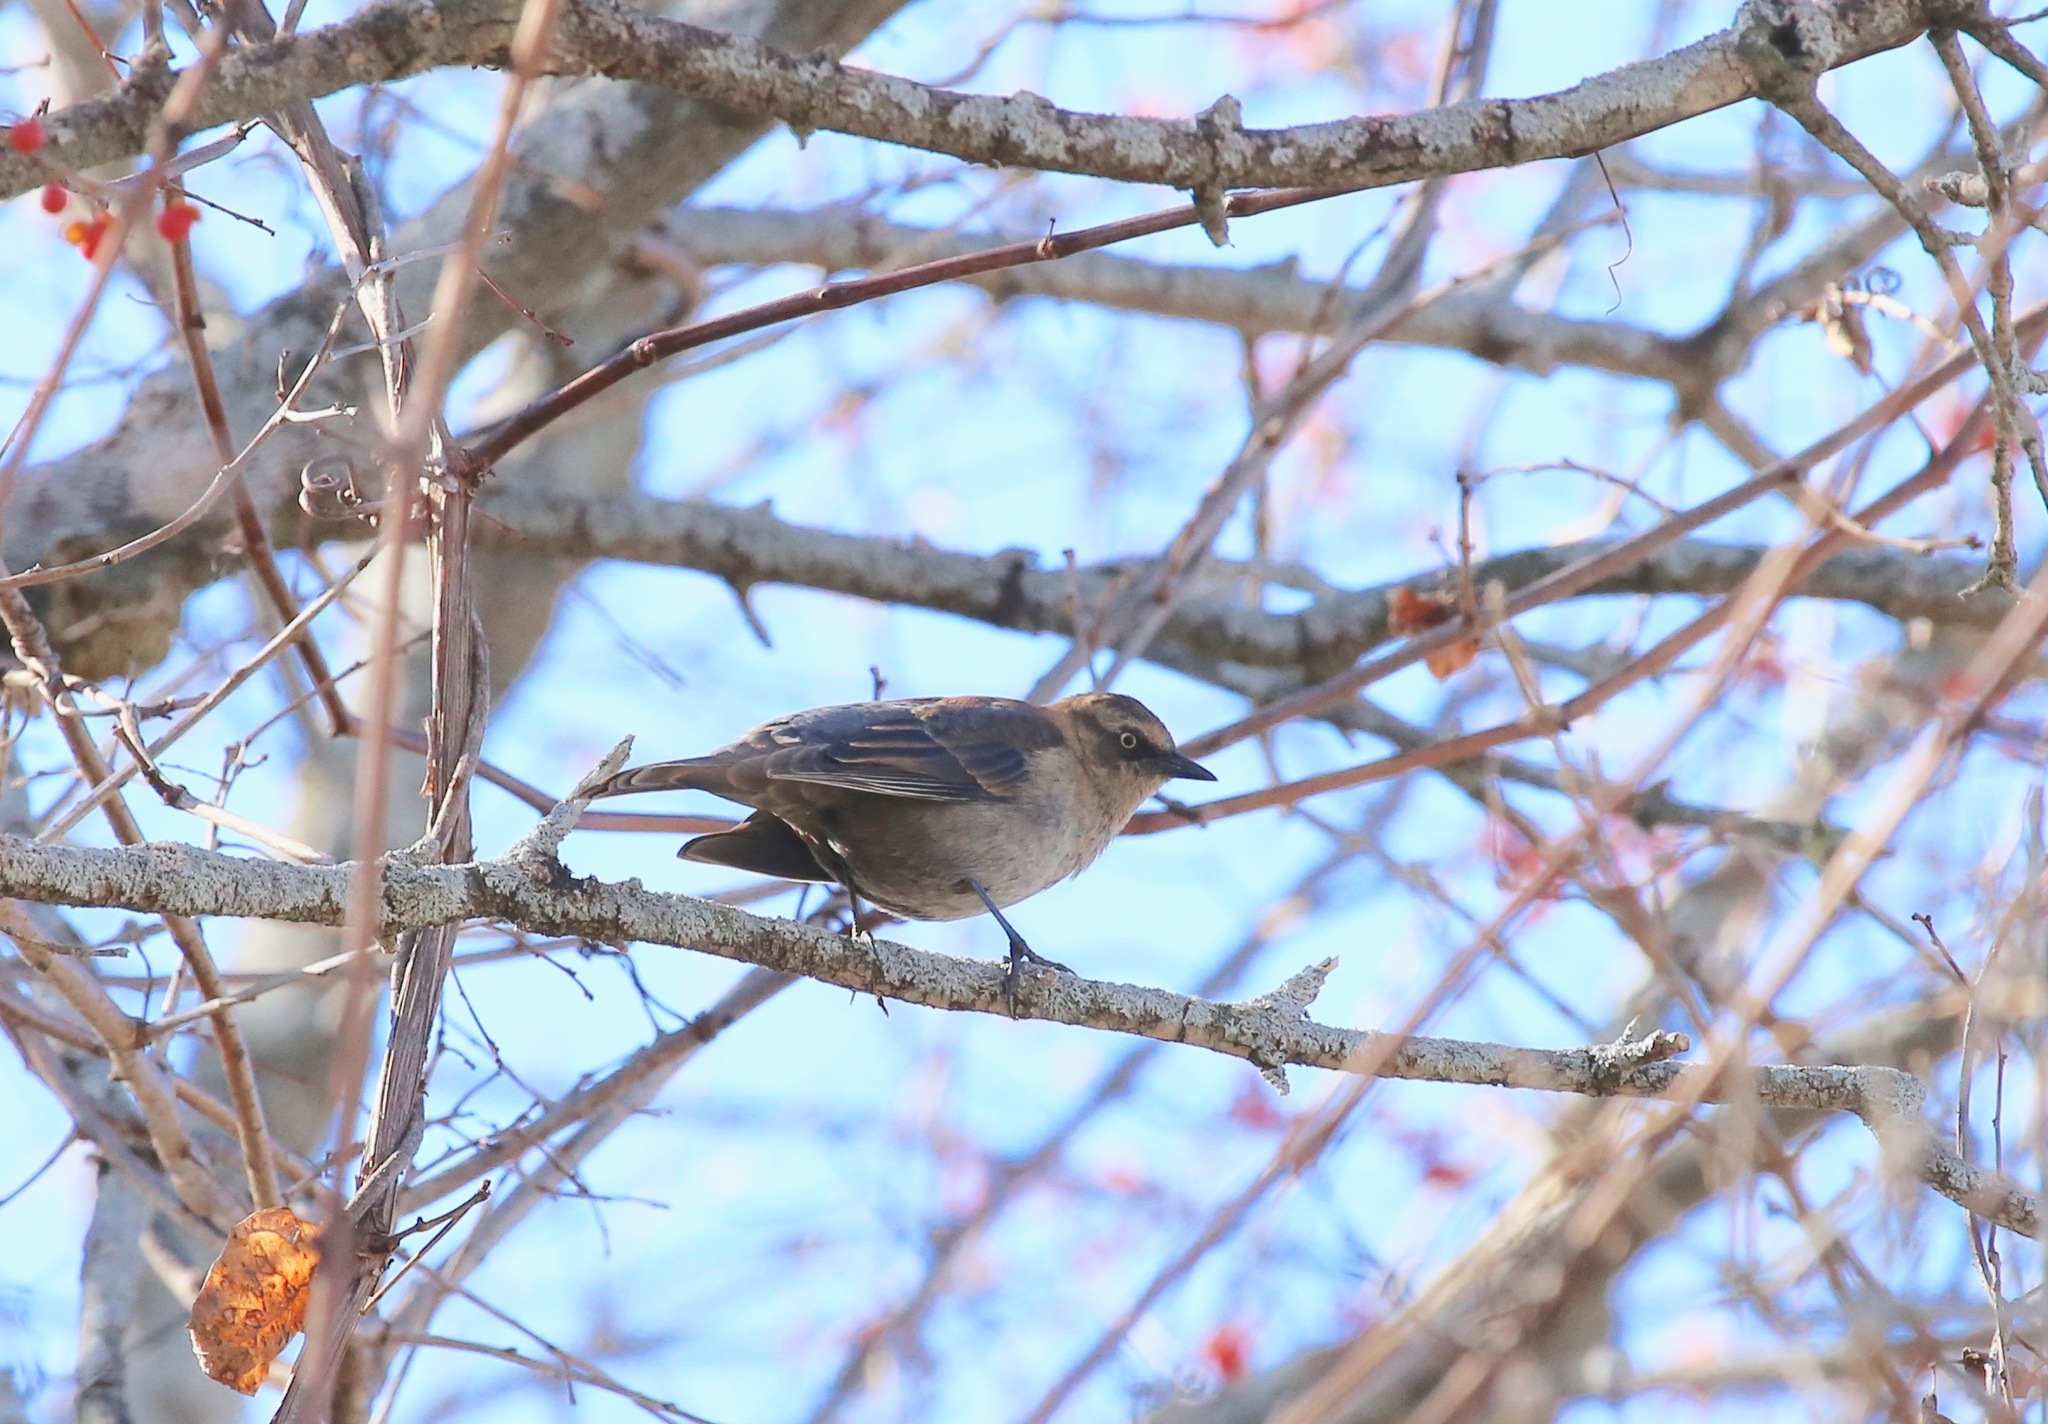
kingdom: Animalia
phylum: Chordata
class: Aves
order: Passeriformes
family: Icteridae
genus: Euphagus
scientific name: Euphagus carolinus
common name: Rusty blackbird
